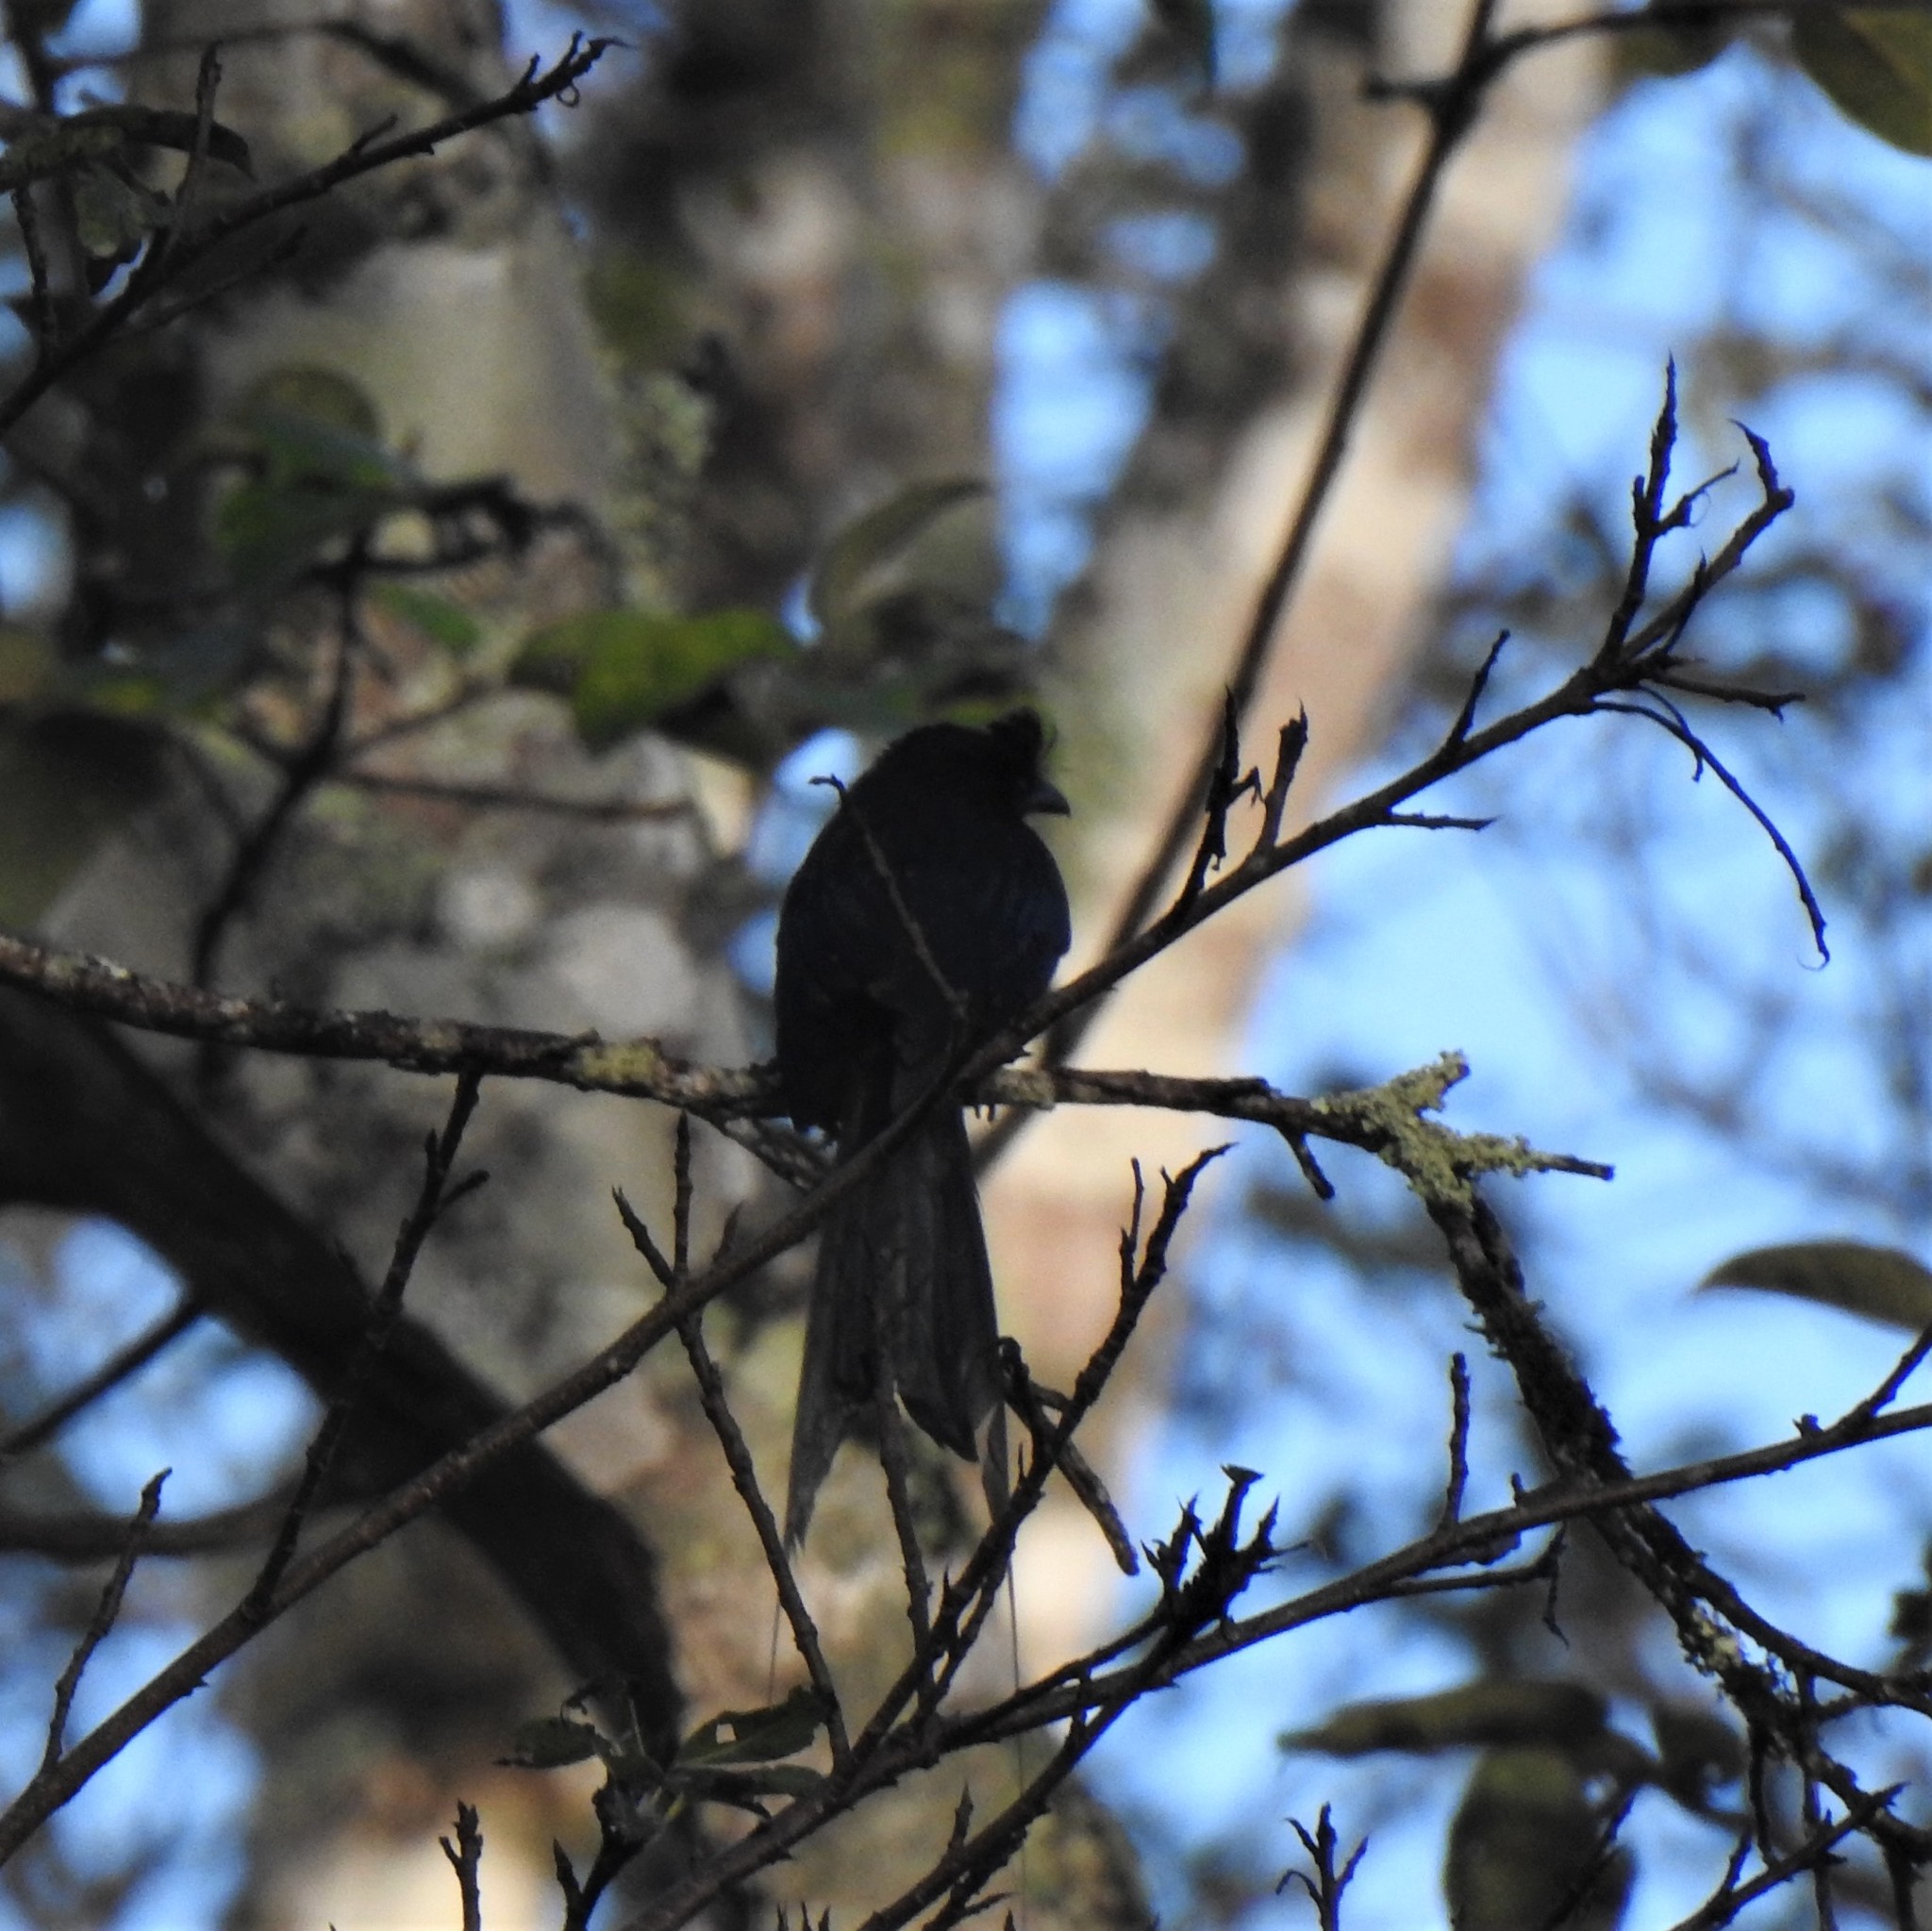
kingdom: Animalia
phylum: Chordata
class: Aves
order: Passeriformes
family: Dicruridae
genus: Dicrurus
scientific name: Dicrurus paradiseus
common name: Greater racket-tailed drongo
